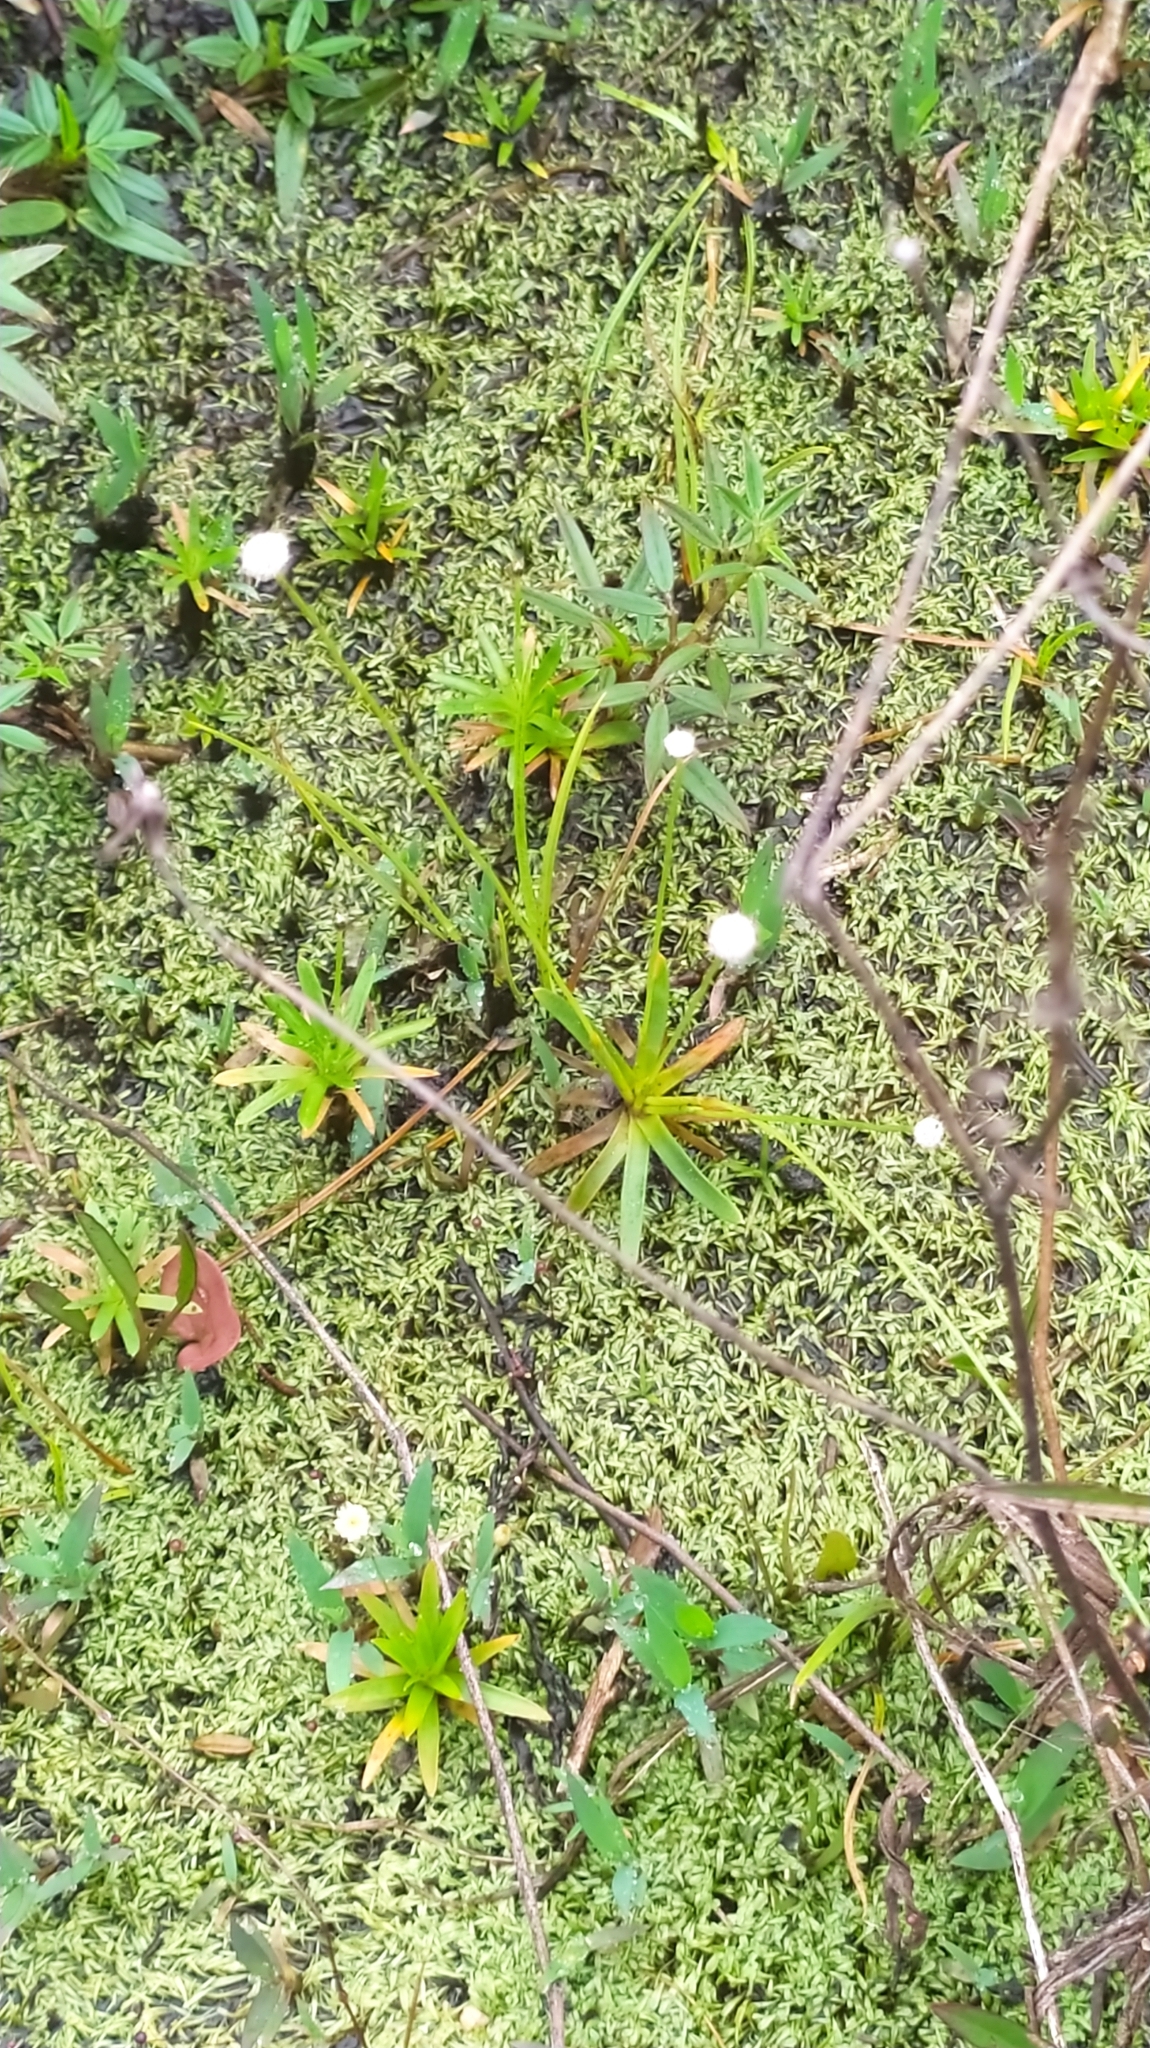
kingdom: Plantae
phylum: Tracheophyta
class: Liliopsida
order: Poales
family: Eriocaulaceae
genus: Paepalanthus
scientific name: Paepalanthus oyapockensis
